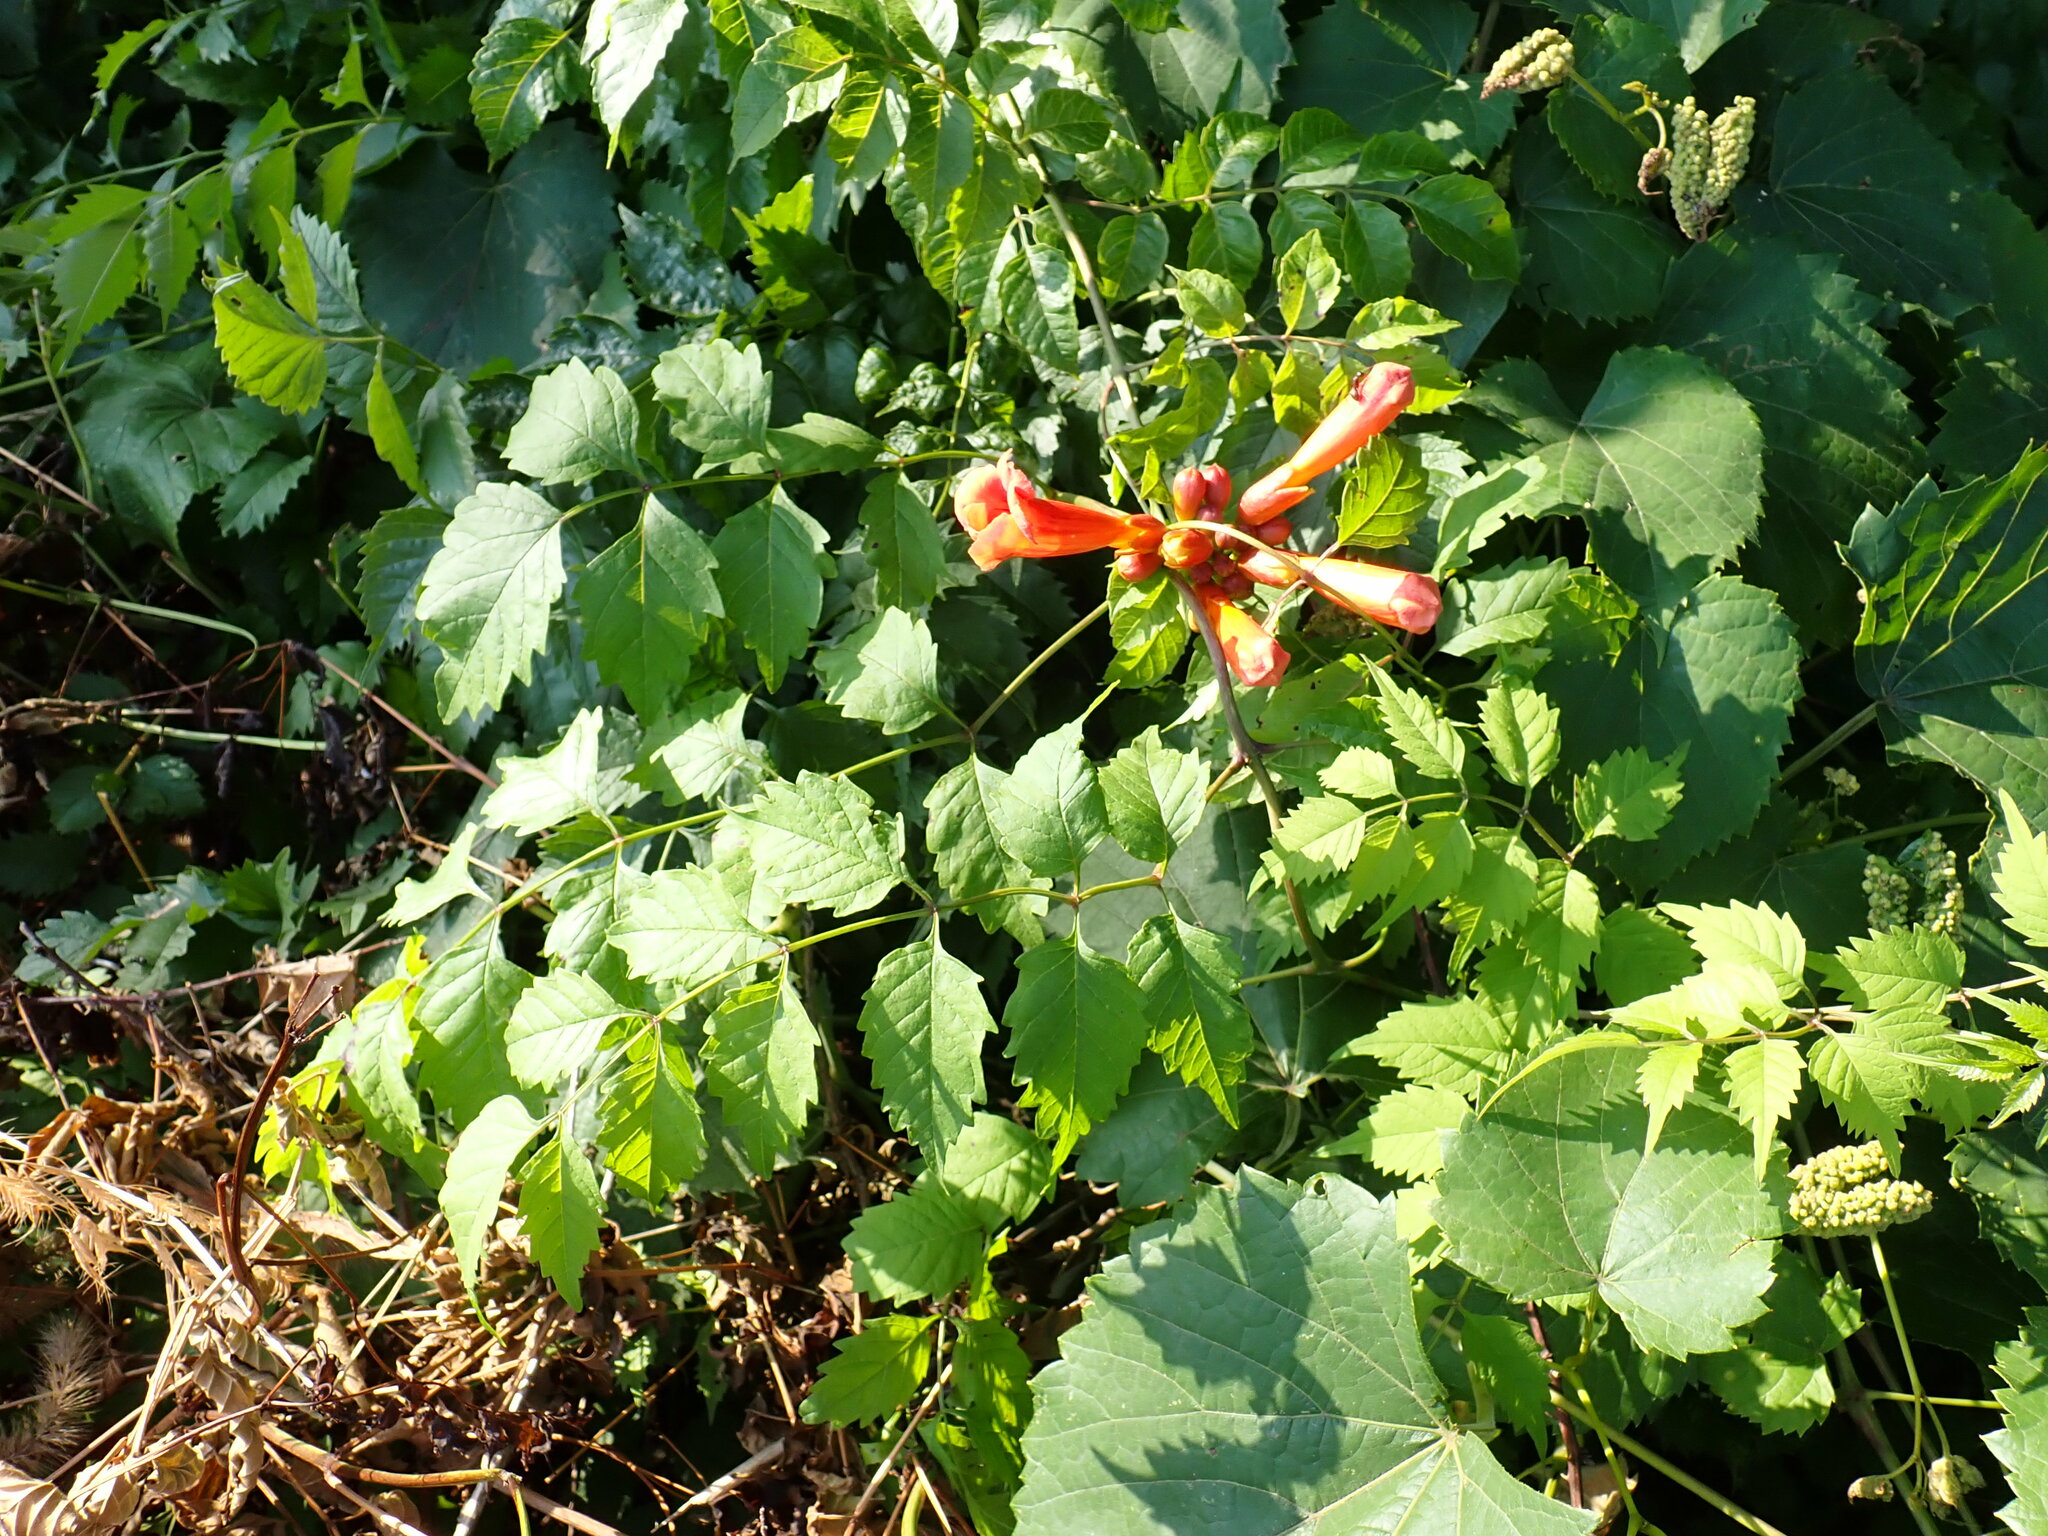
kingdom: Plantae
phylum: Tracheophyta
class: Magnoliopsida
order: Lamiales
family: Bignoniaceae
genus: Campsis
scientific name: Campsis radicans
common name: Trumpet-creeper
